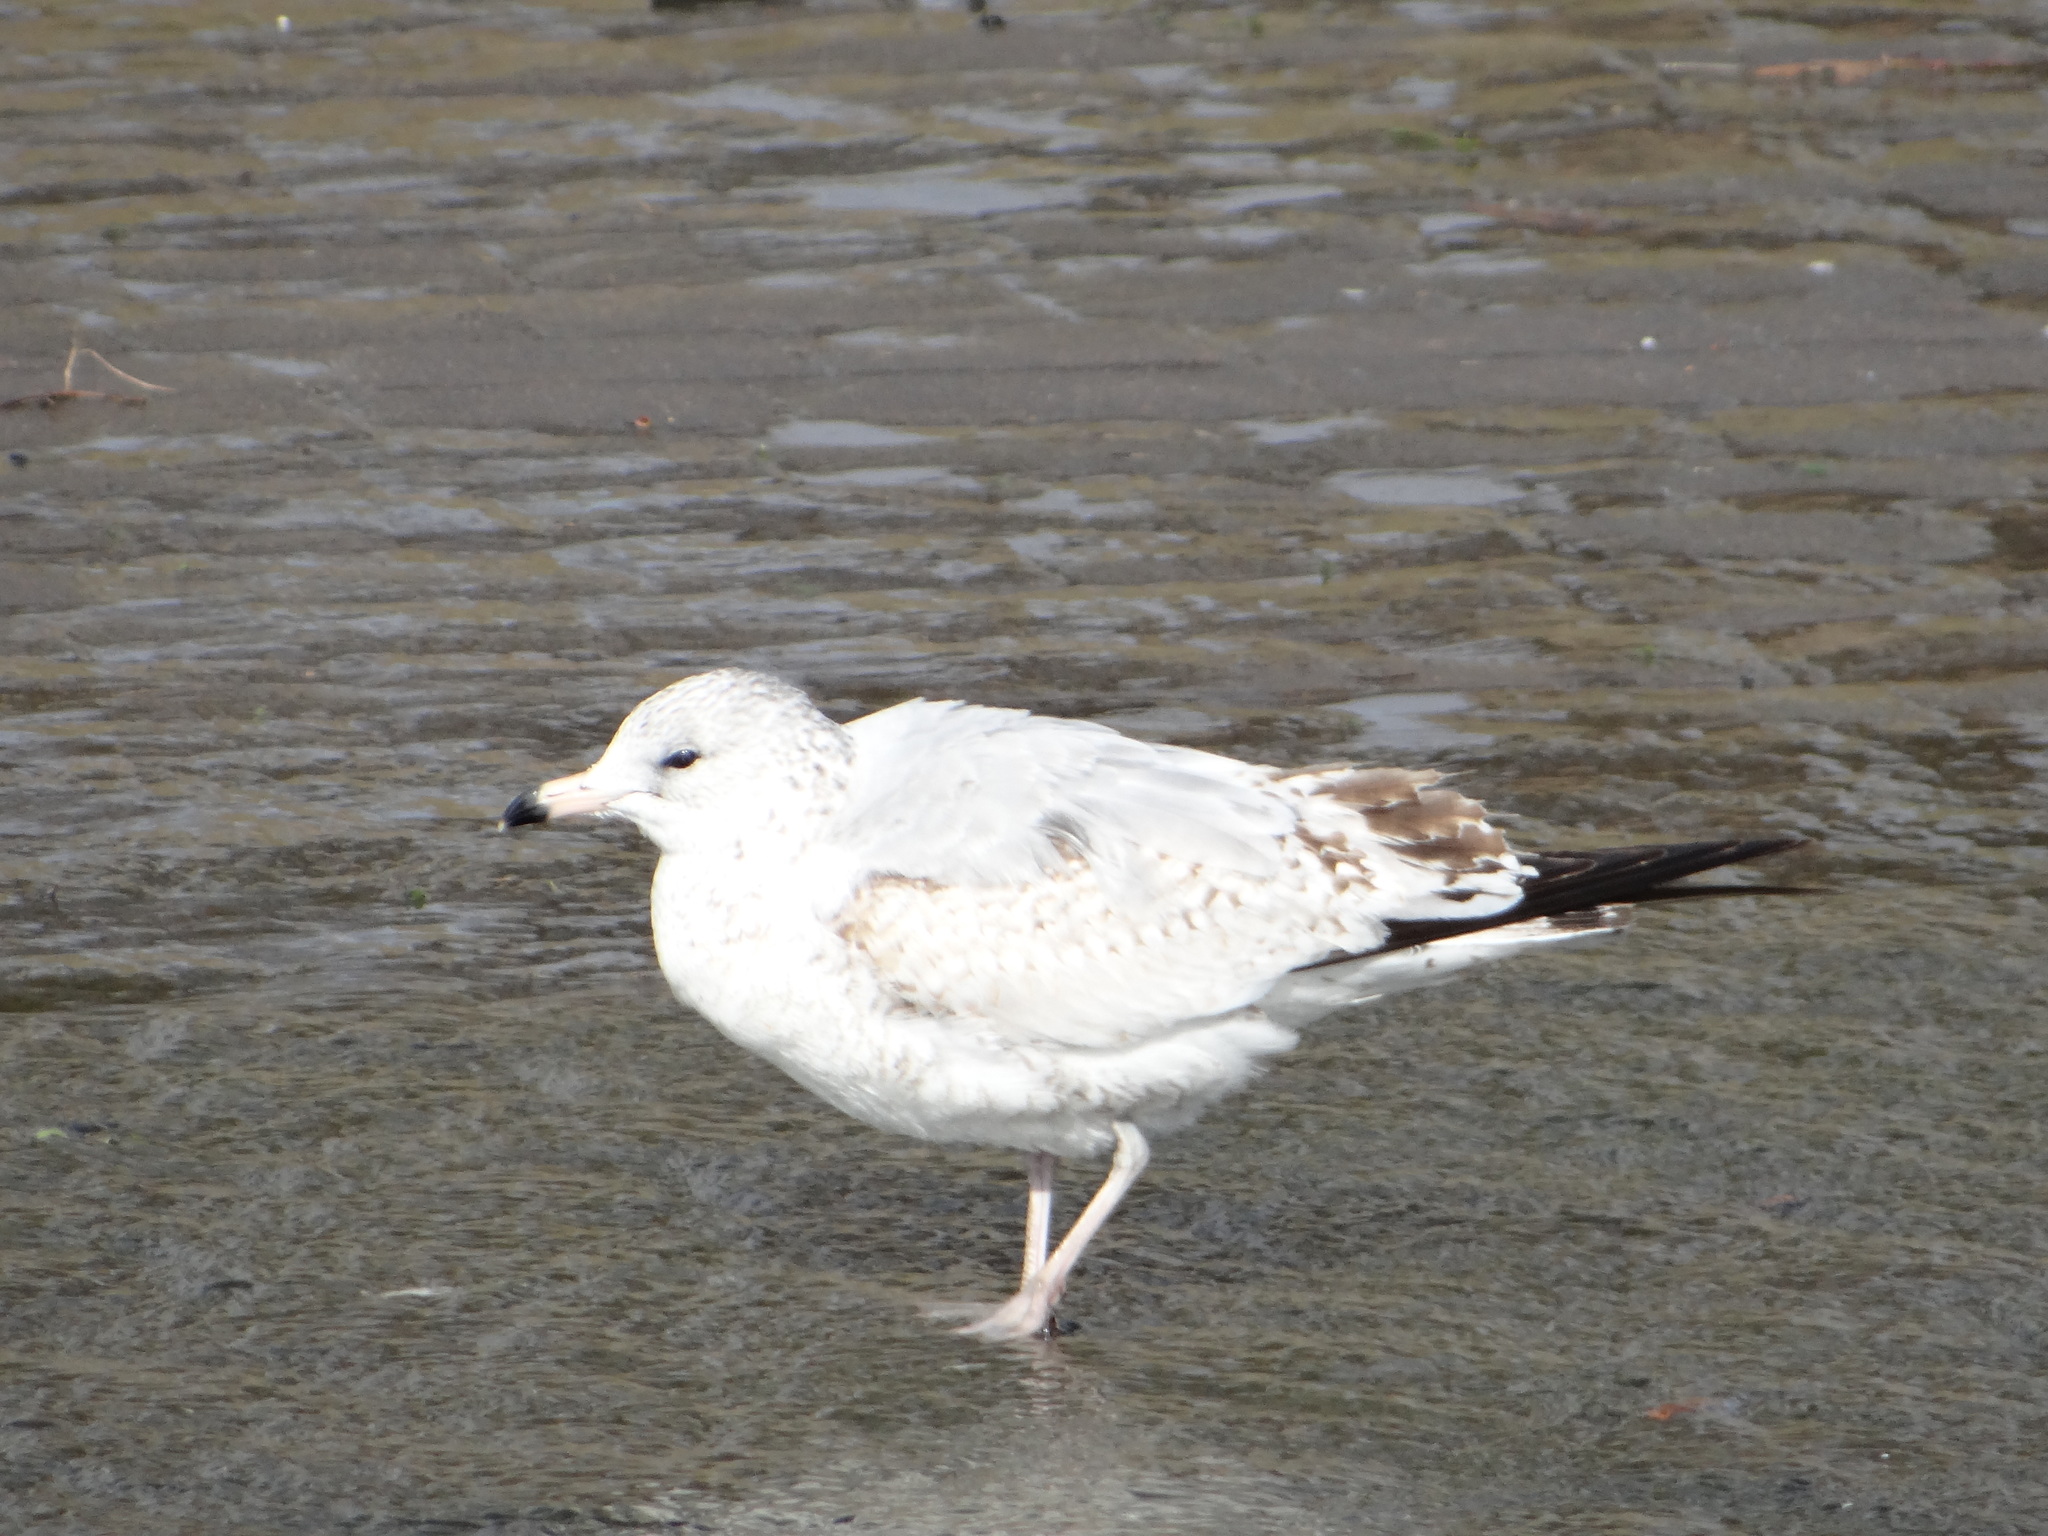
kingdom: Animalia
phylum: Chordata
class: Aves
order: Charadriiformes
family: Laridae
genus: Larus
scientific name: Larus delawarensis
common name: Ring-billed gull
